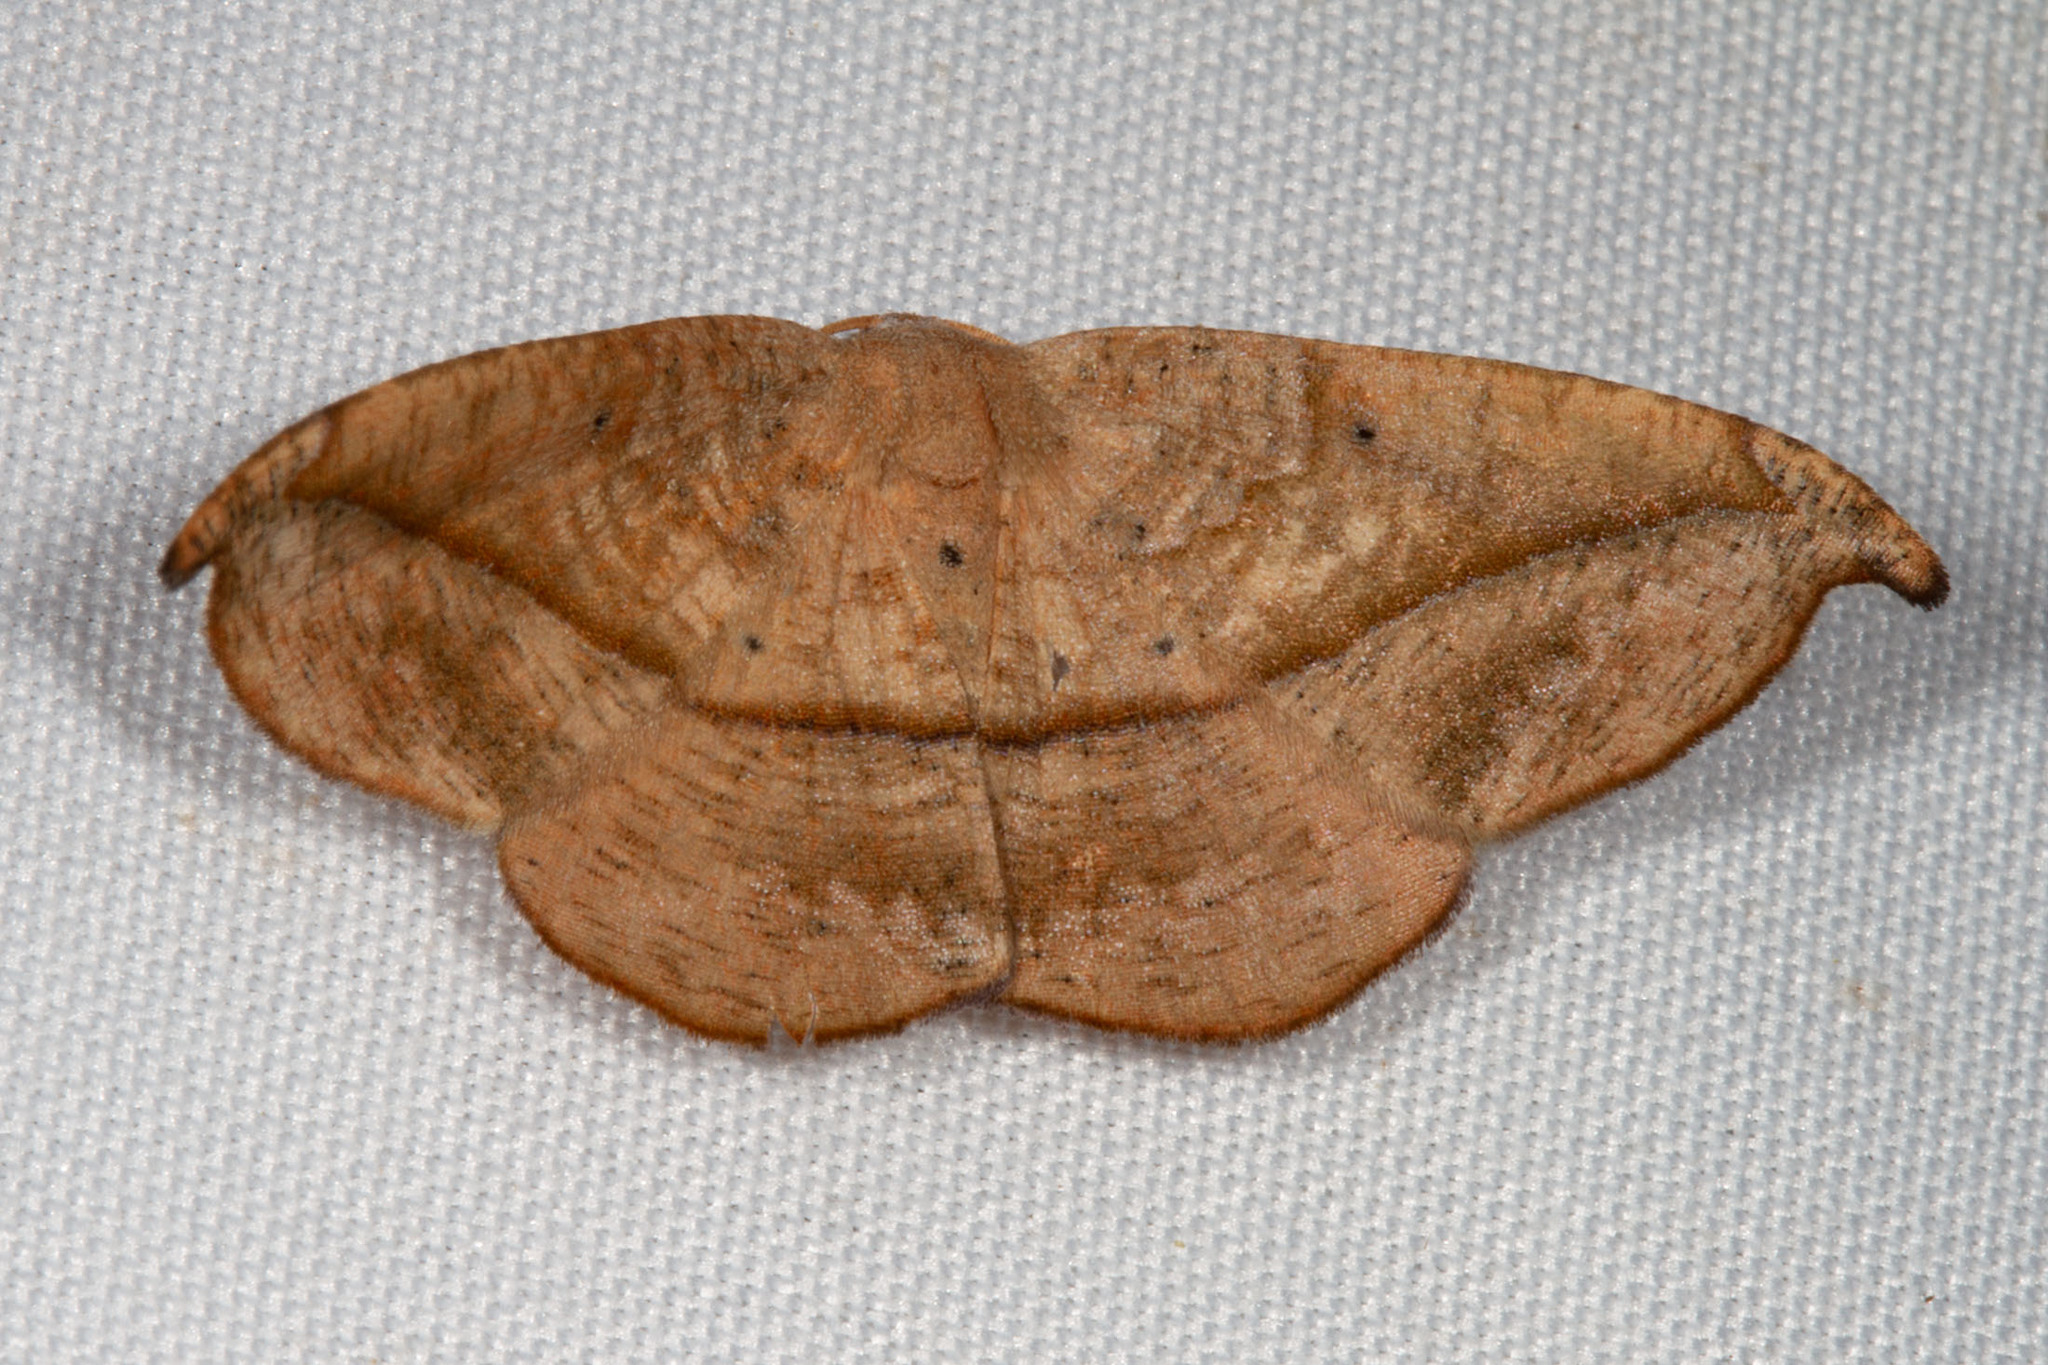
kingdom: Animalia
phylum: Arthropoda
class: Insecta
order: Lepidoptera
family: Geometridae
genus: Patalene
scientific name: Patalene olyzonaria
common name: Juniper geometer moth
